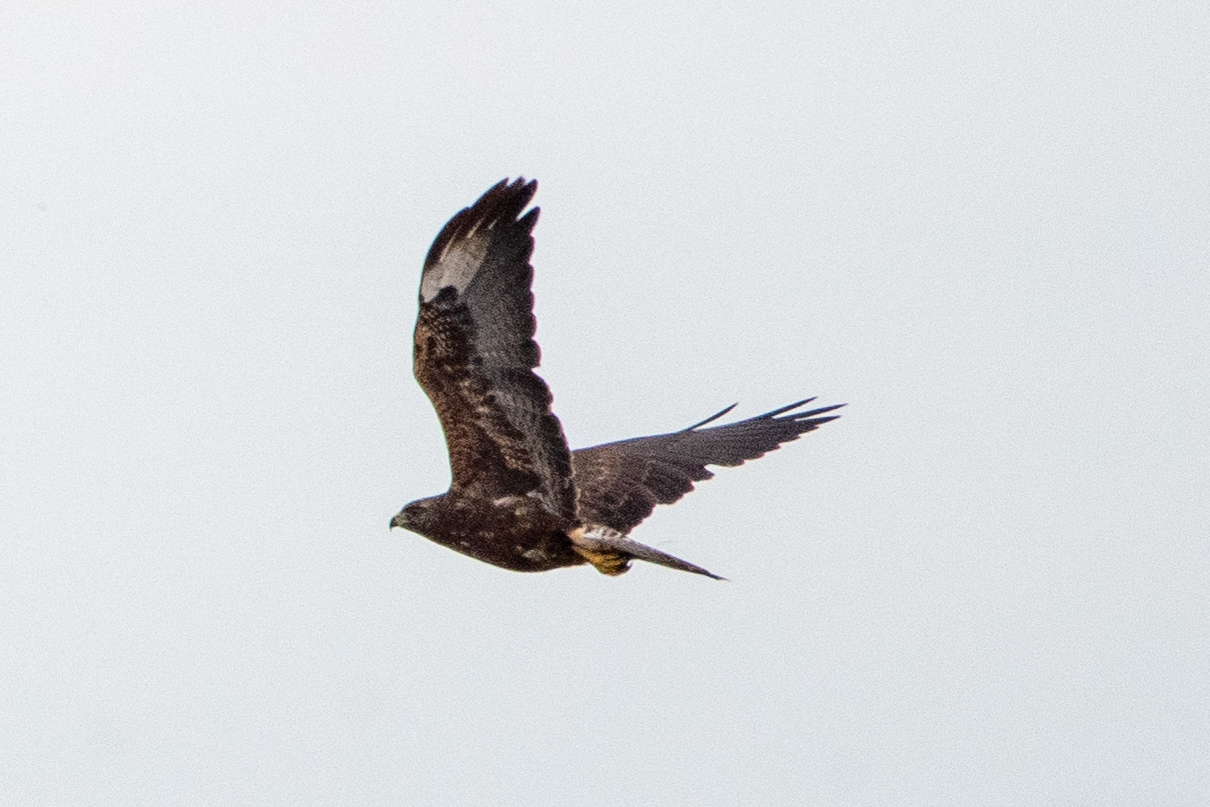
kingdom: Animalia
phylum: Chordata
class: Aves
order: Accipitriformes
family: Accipitridae
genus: Buteo
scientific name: Buteo swainsoni
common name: Swainson's hawk
